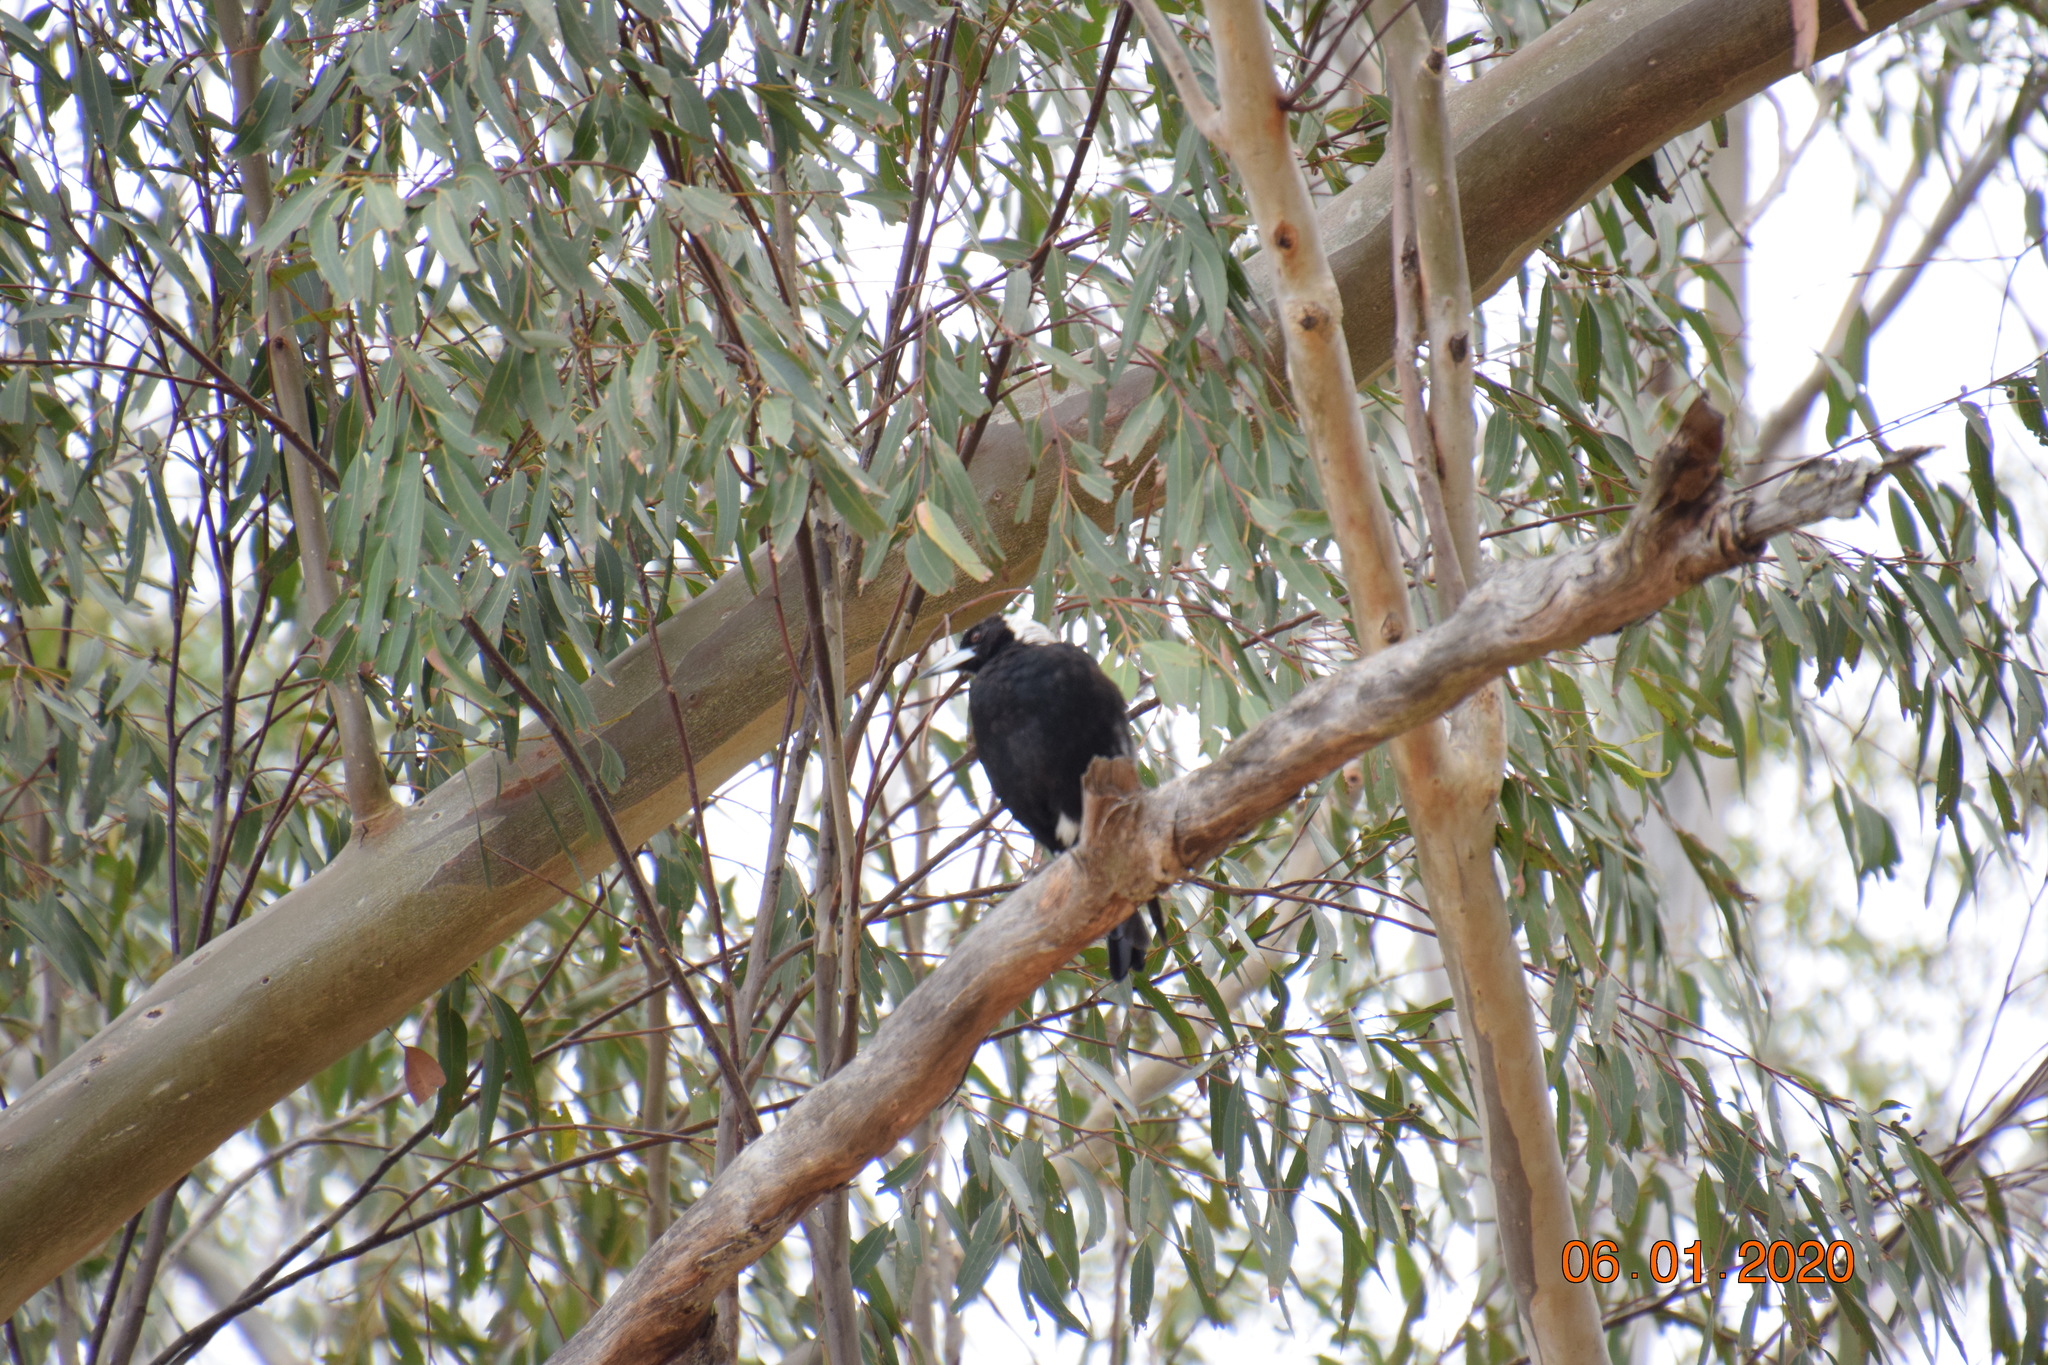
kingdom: Animalia
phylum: Chordata
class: Aves
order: Passeriformes
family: Cracticidae
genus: Gymnorhina
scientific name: Gymnorhina tibicen
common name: Australian magpie
